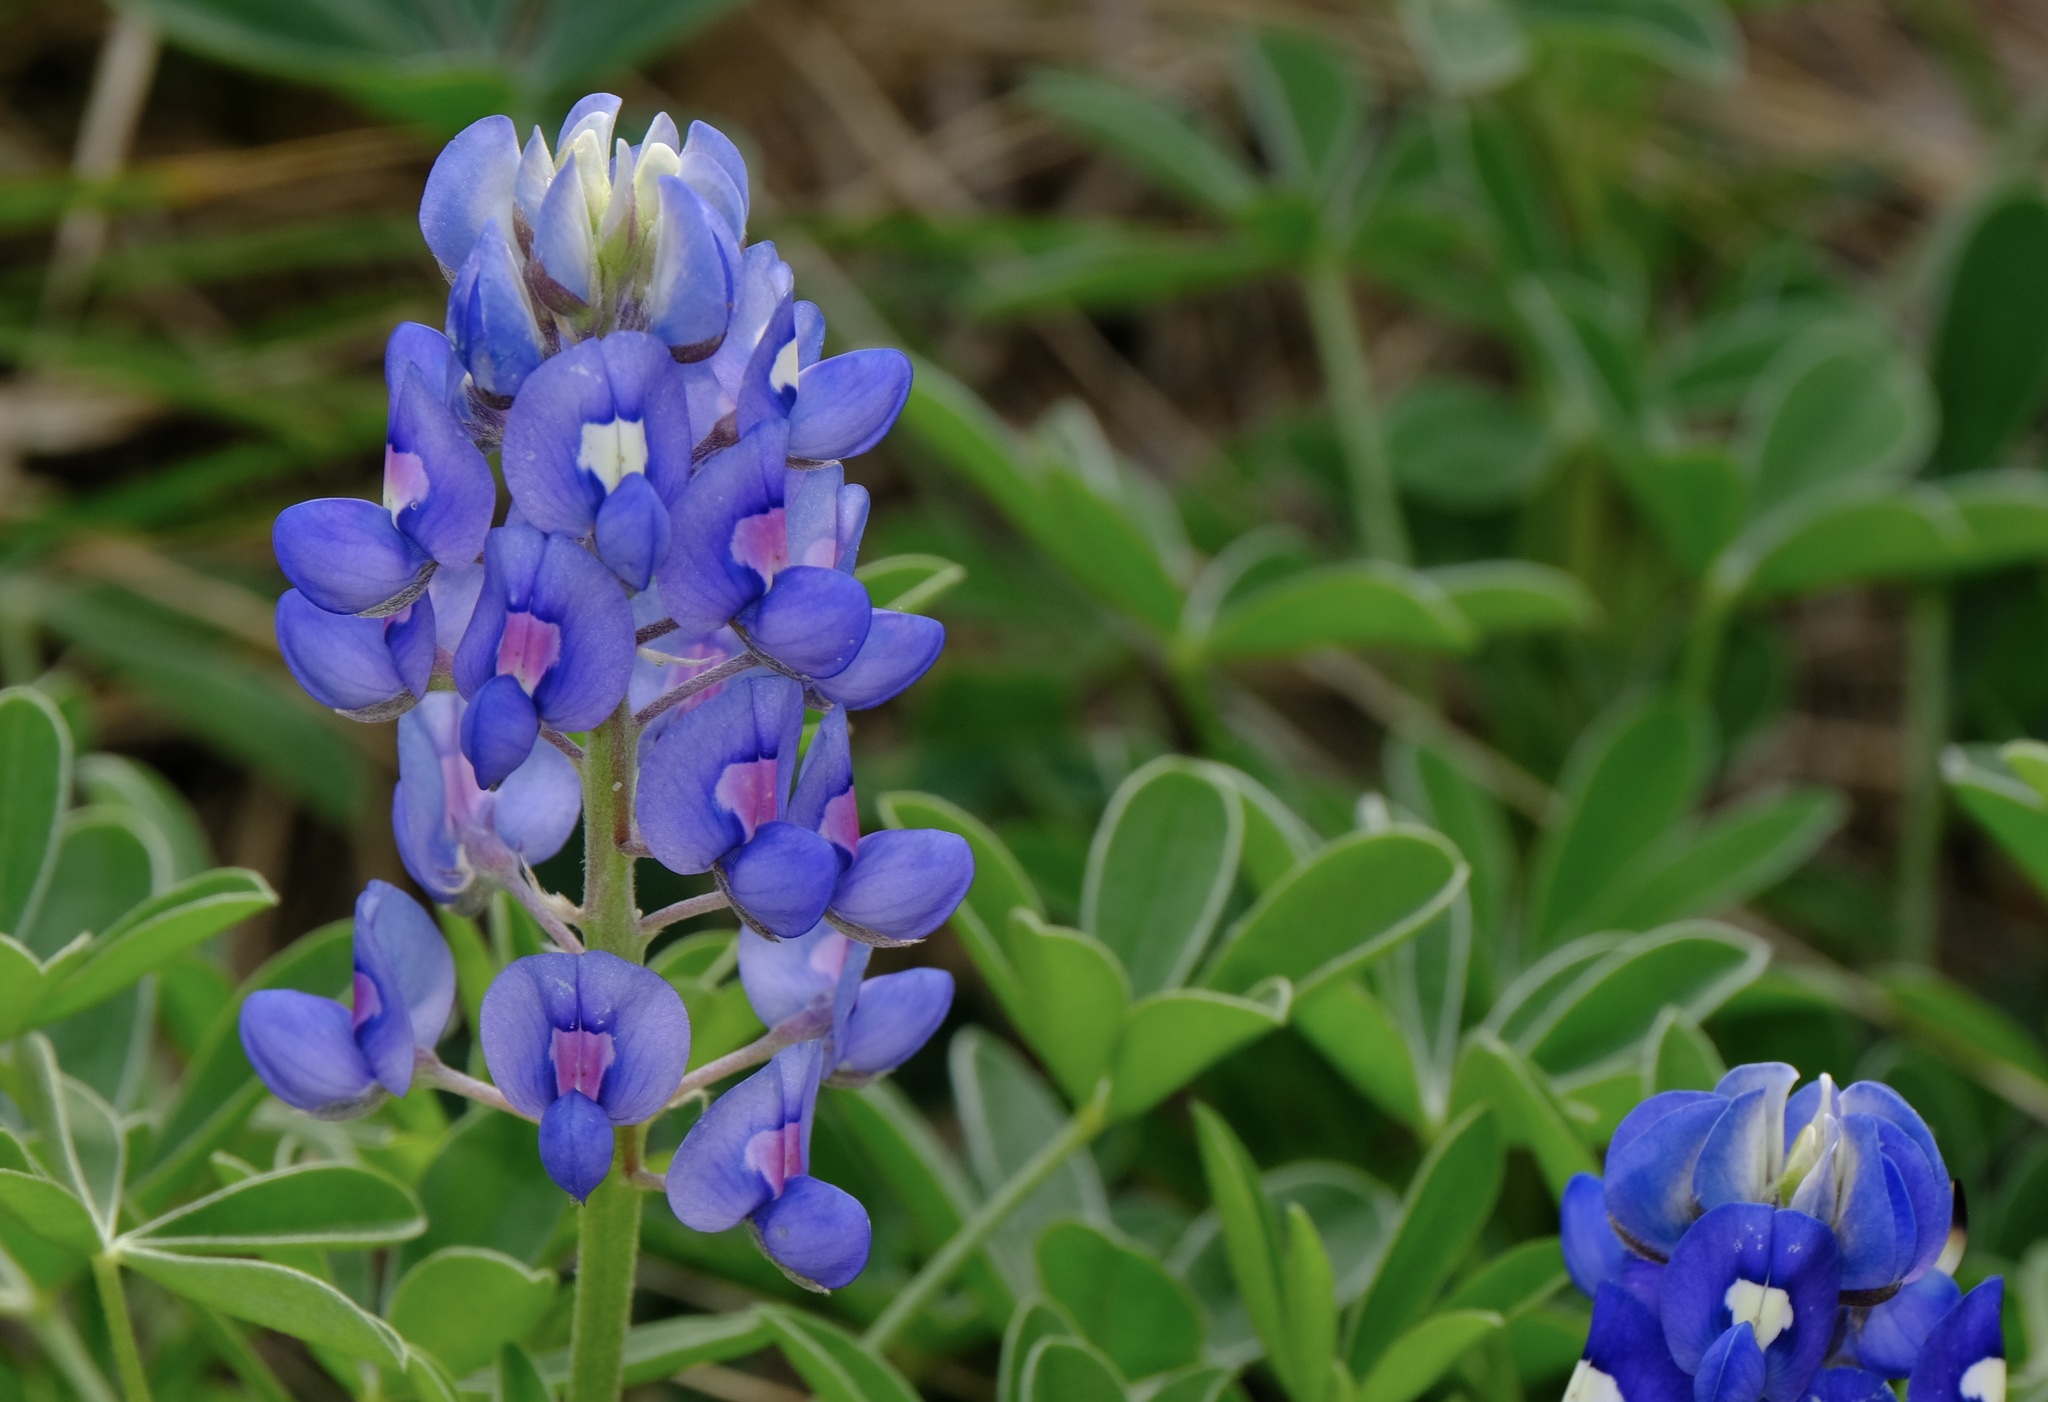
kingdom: Plantae
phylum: Tracheophyta
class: Magnoliopsida
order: Fabales
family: Fabaceae
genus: Lupinus
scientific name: Lupinus texensis
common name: Texas bluebonnet
